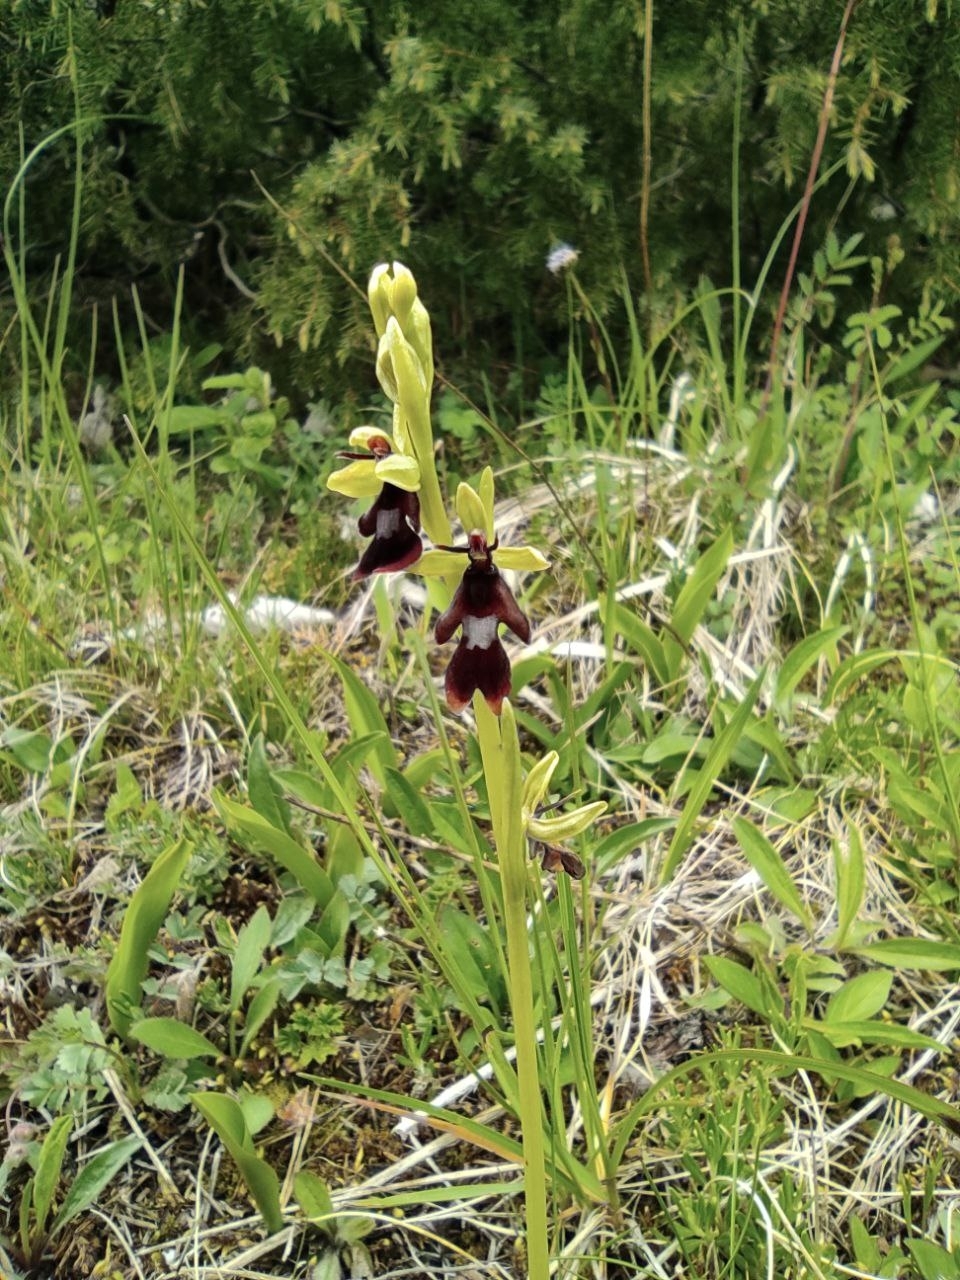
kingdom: Plantae
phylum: Tracheophyta
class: Liliopsida
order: Asparagales
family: Orchidaceae
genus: Ophrys
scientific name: Ophrys insectifera
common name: Fly orchid
